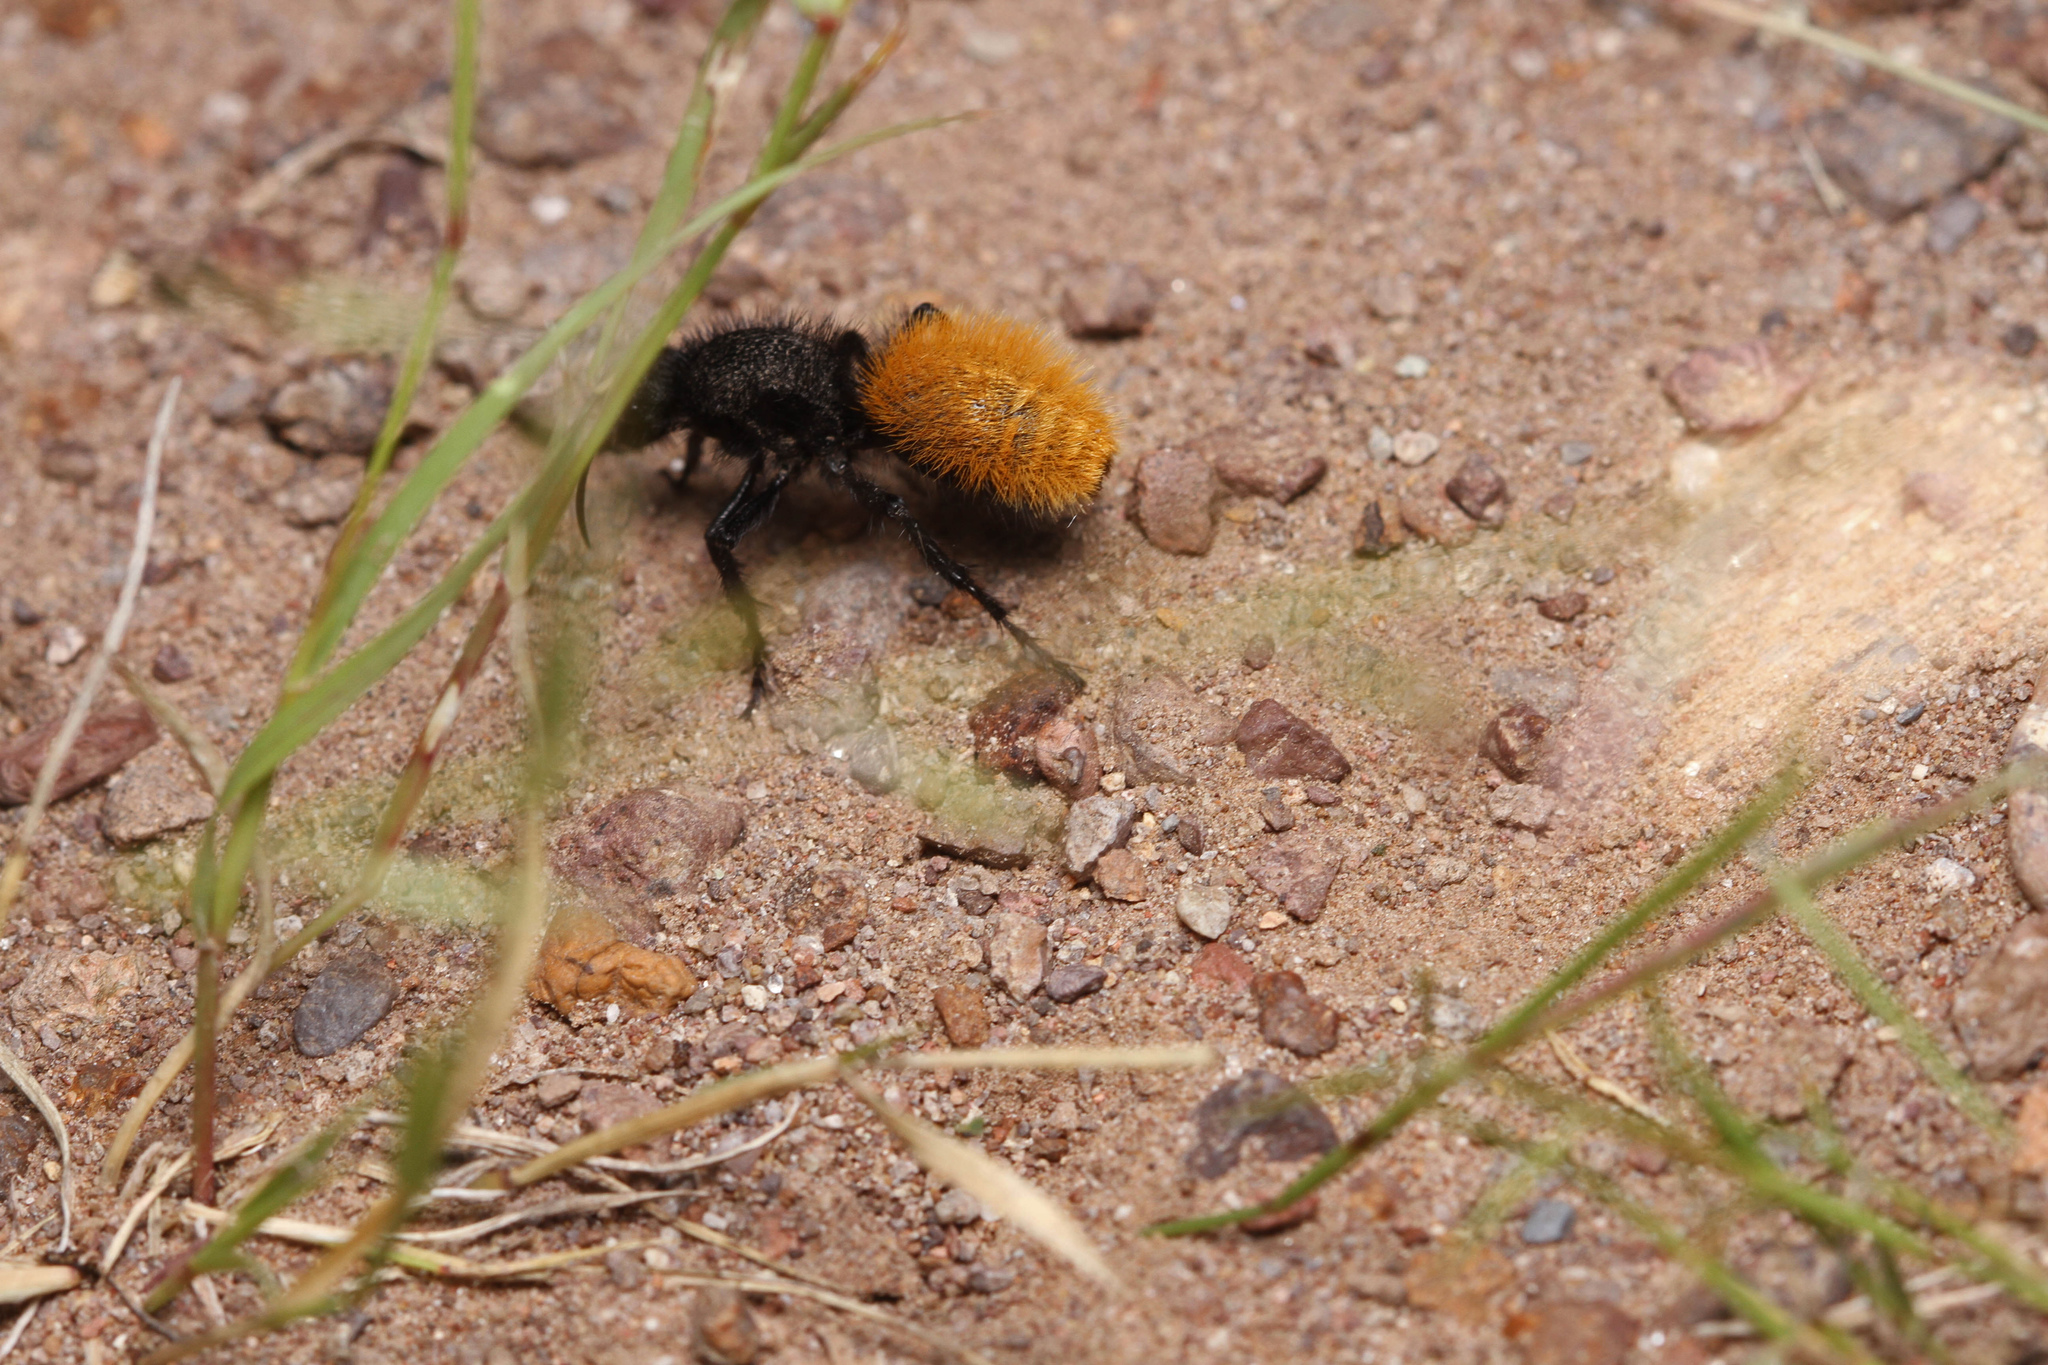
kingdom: Animalia
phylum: Arthropoda
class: Insecta
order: Hymenoptera
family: Mutillidae
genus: Dasymutilla
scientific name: Dasymutilla
